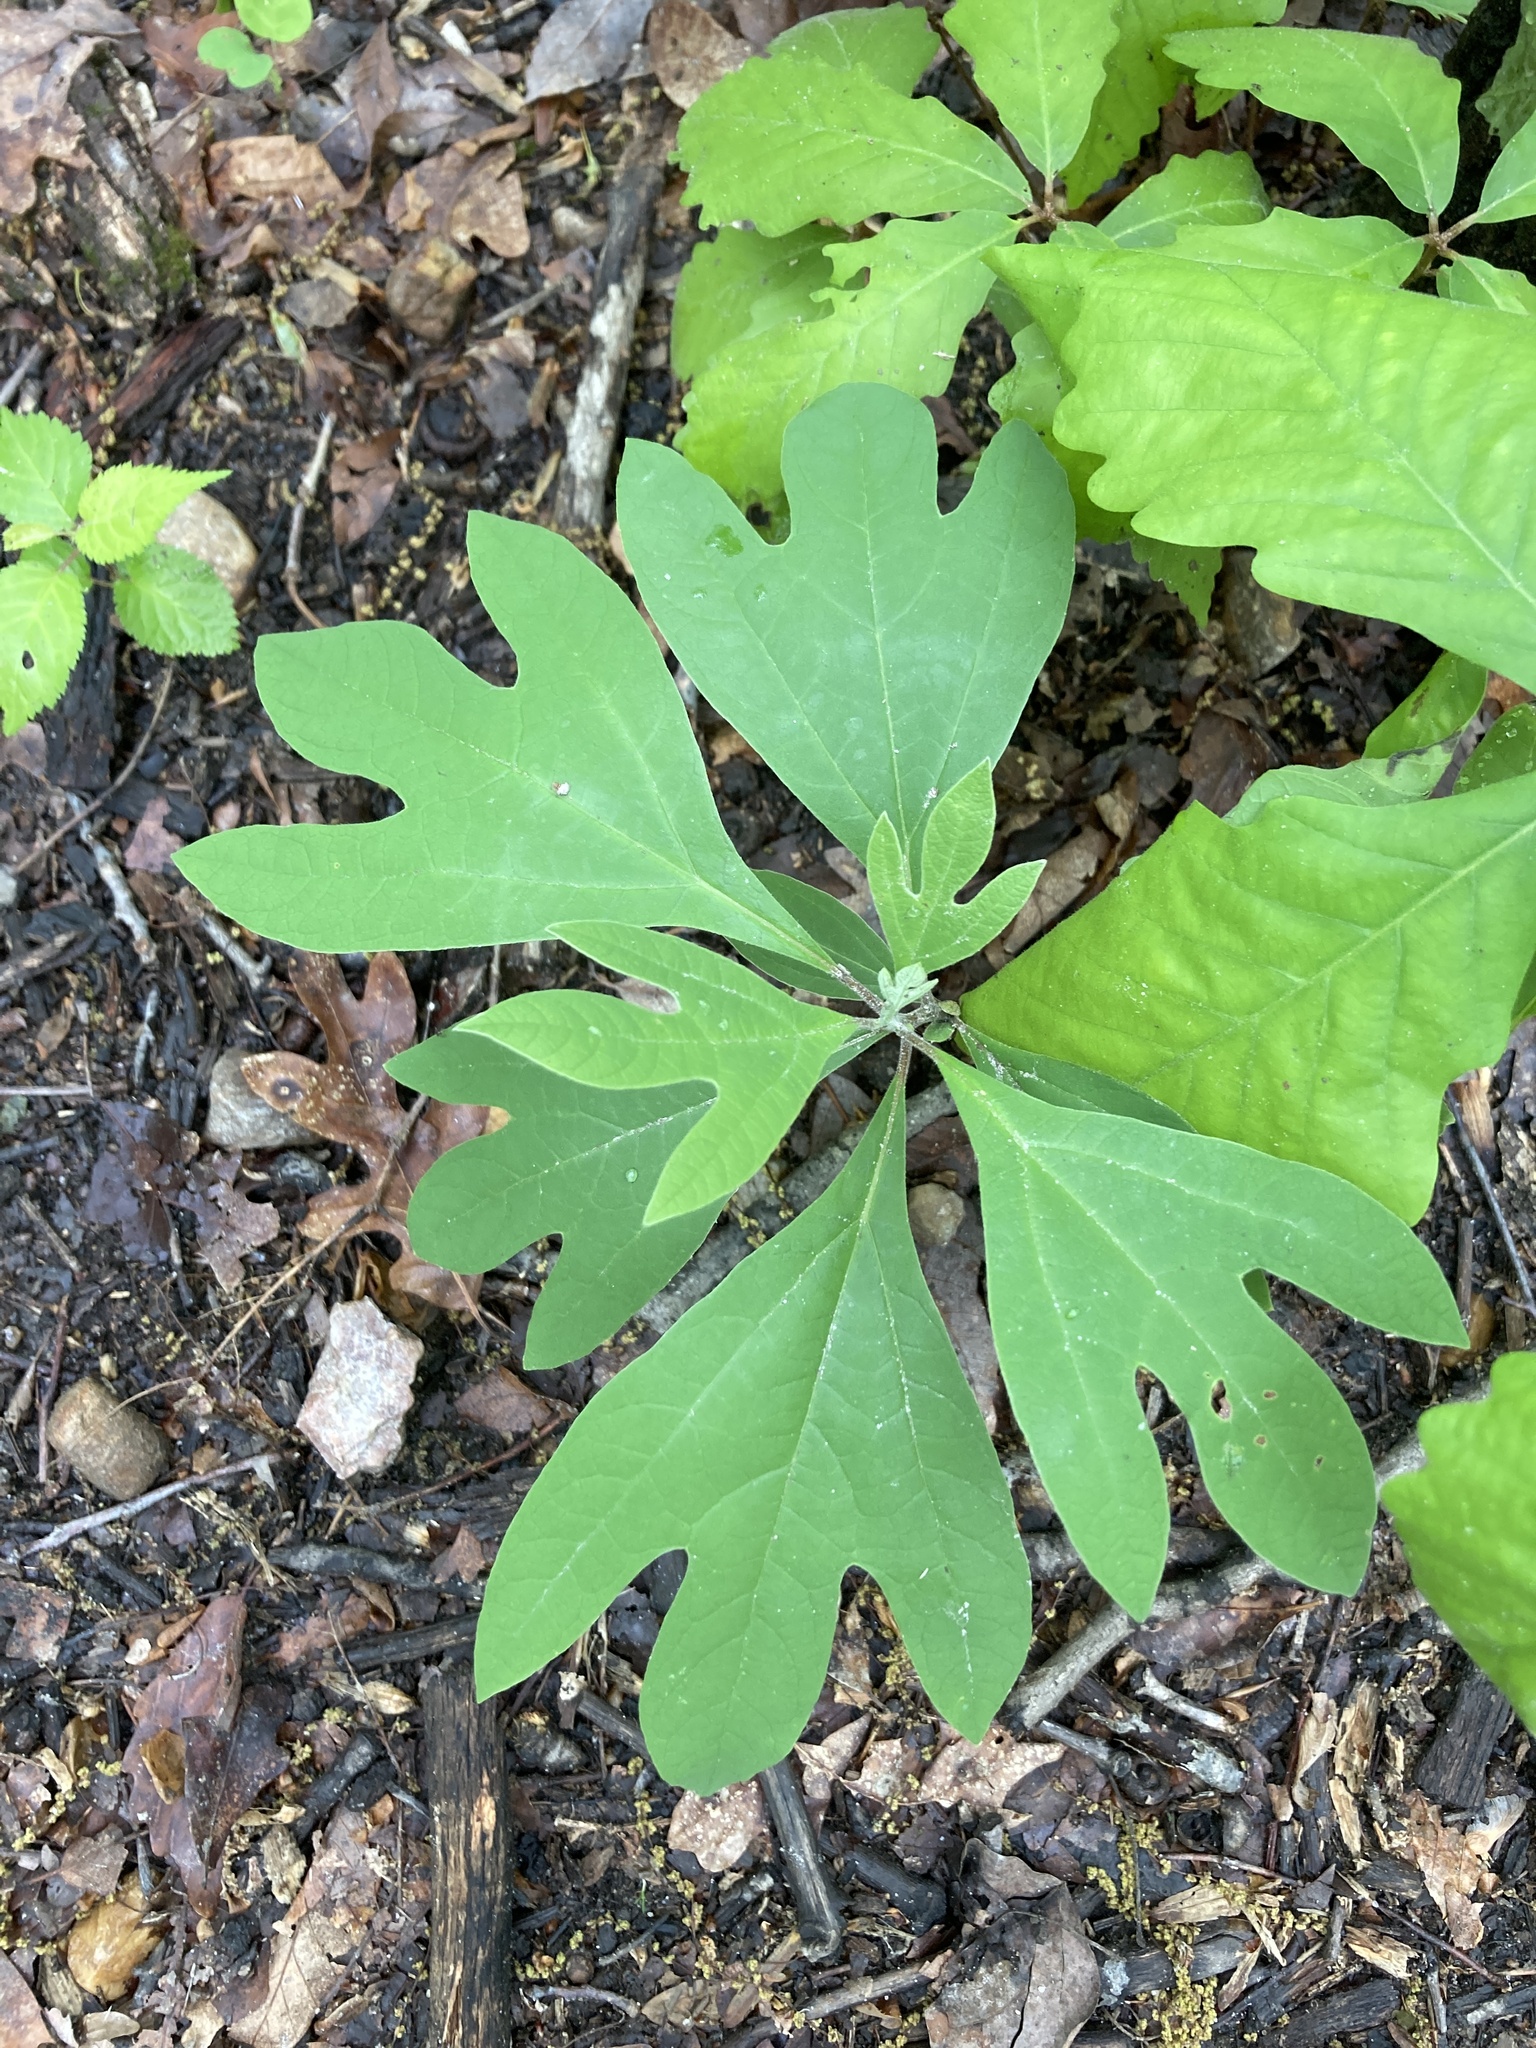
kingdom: Plantae
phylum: Tracheophyta
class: Magnoliopsida
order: Laurales
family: Lauraceae
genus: Sassafras
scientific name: Sassafras albidum
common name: Sassafras
